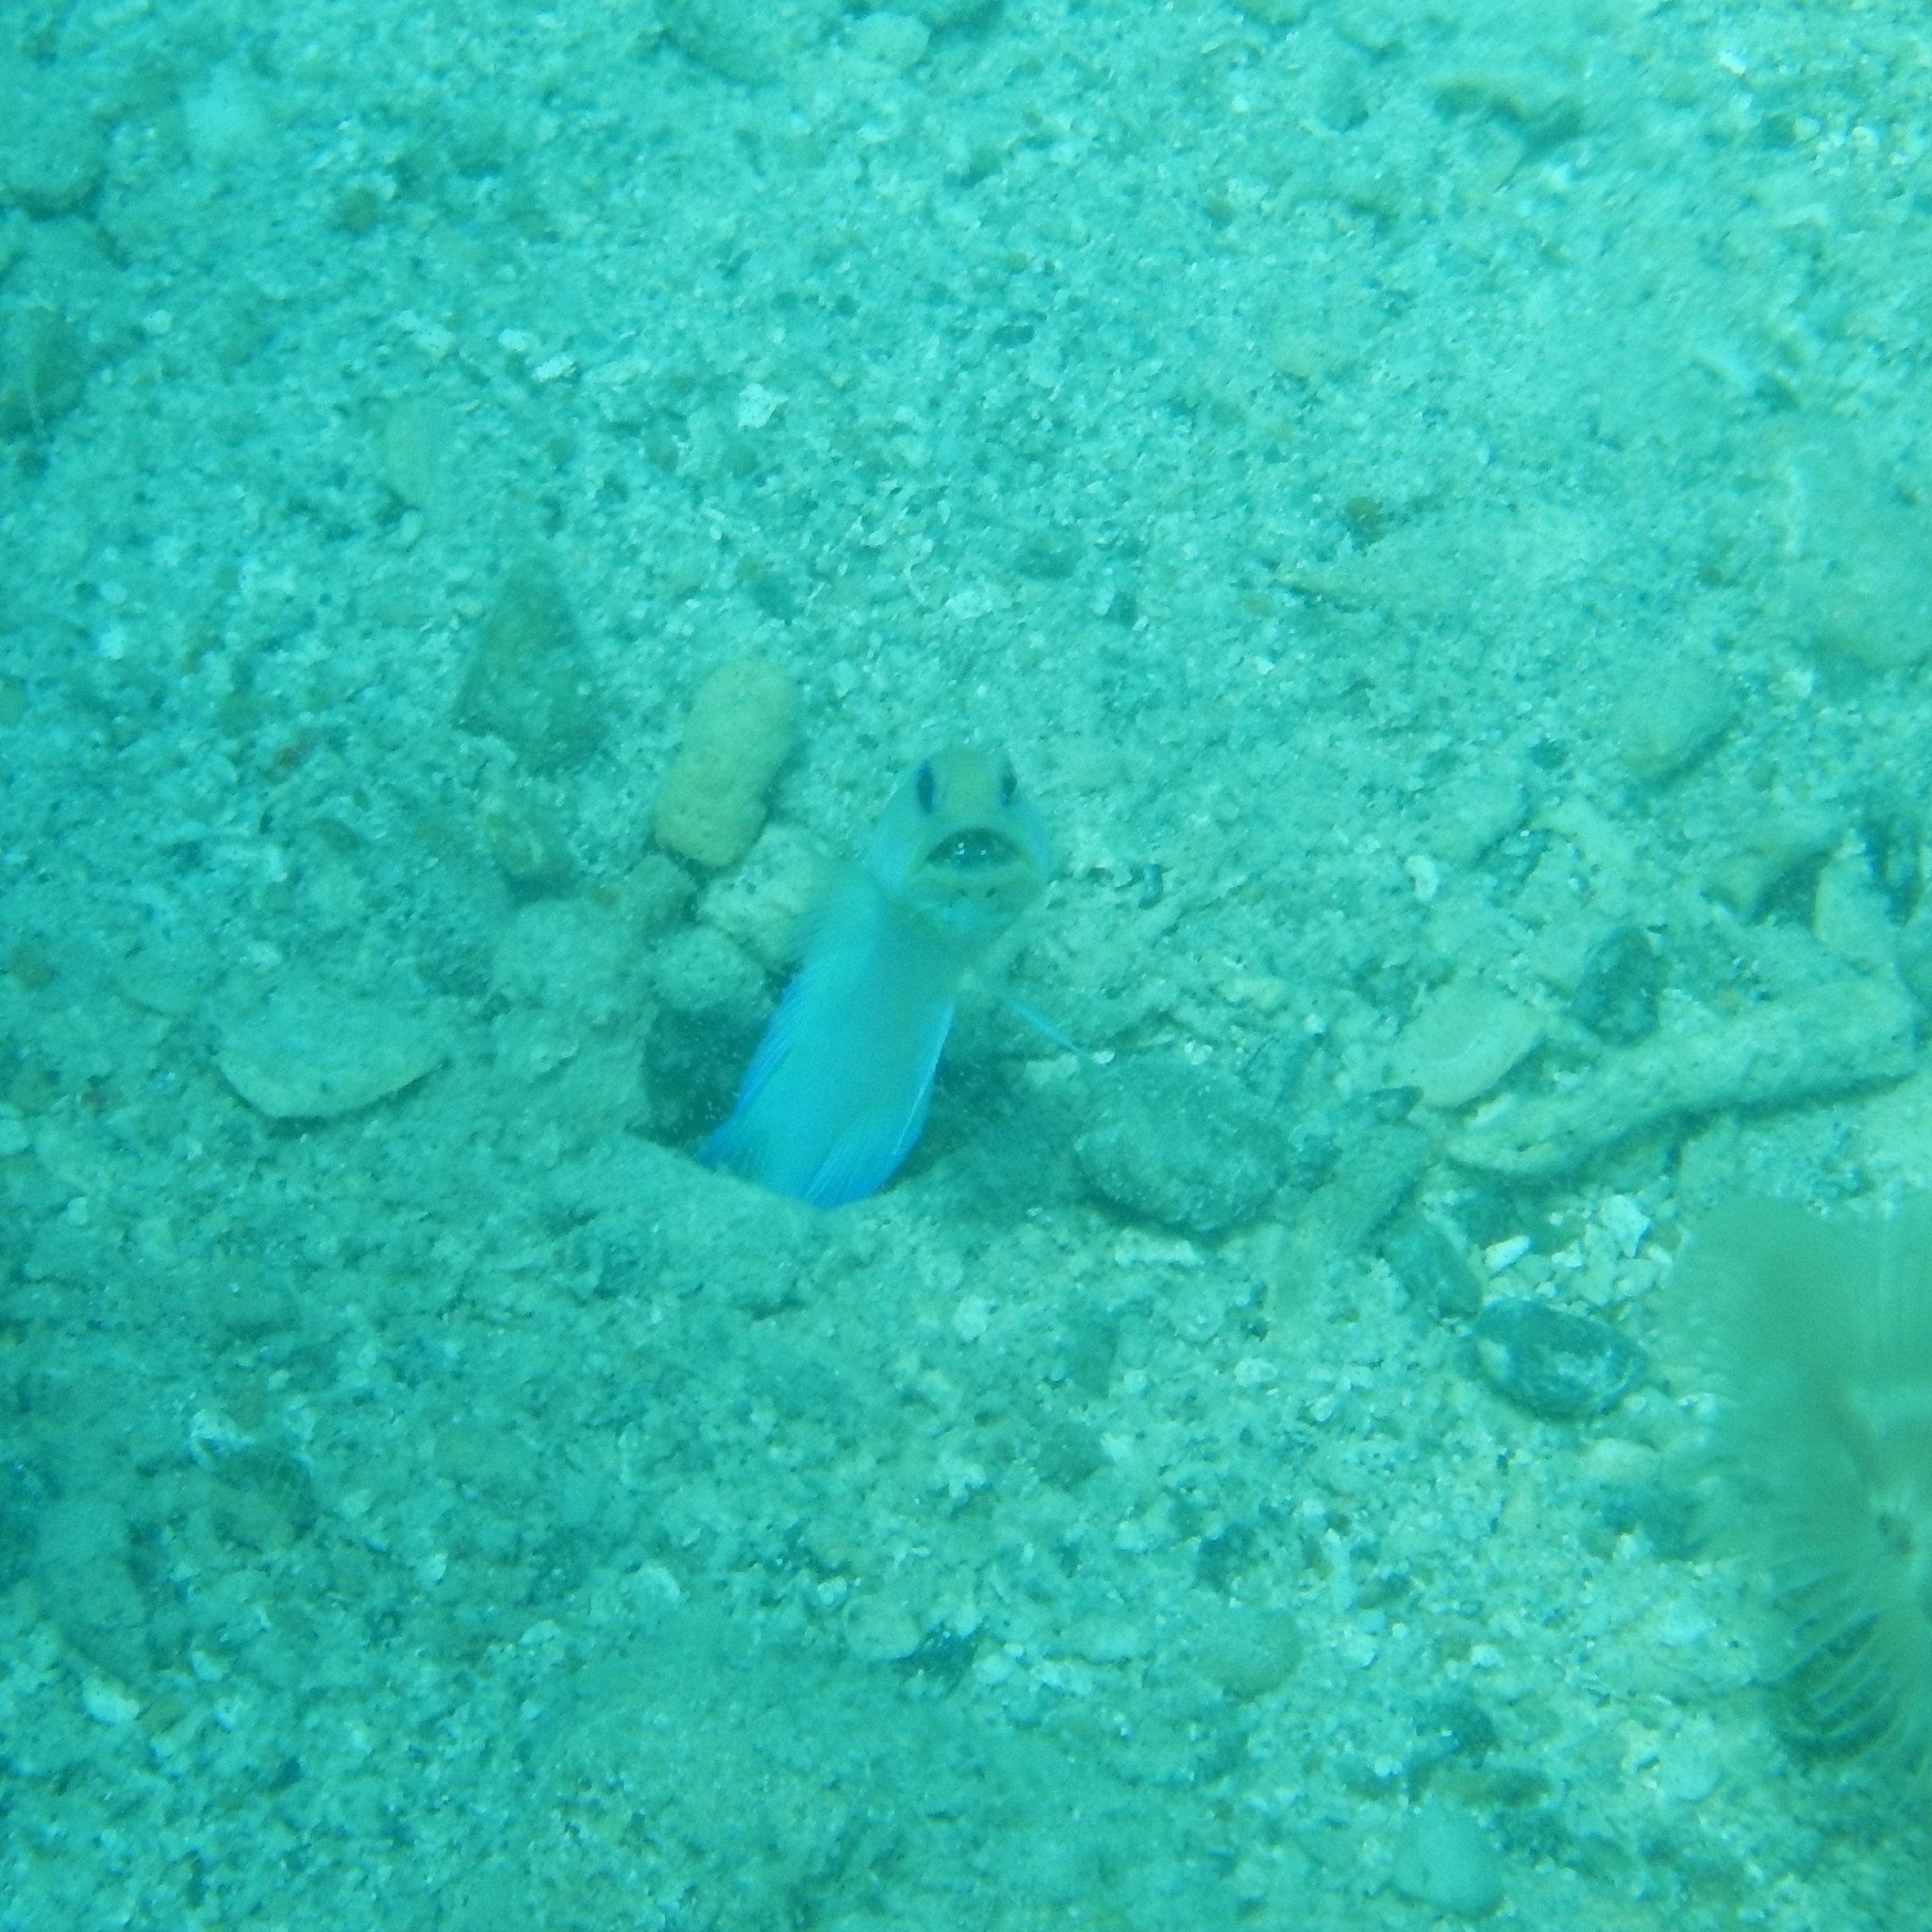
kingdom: Animalia
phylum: Chordata
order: Perciformes
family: Opistognathidae
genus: Opistognathus
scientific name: Opistognathus aurifrons
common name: Yellowhead jawfish
